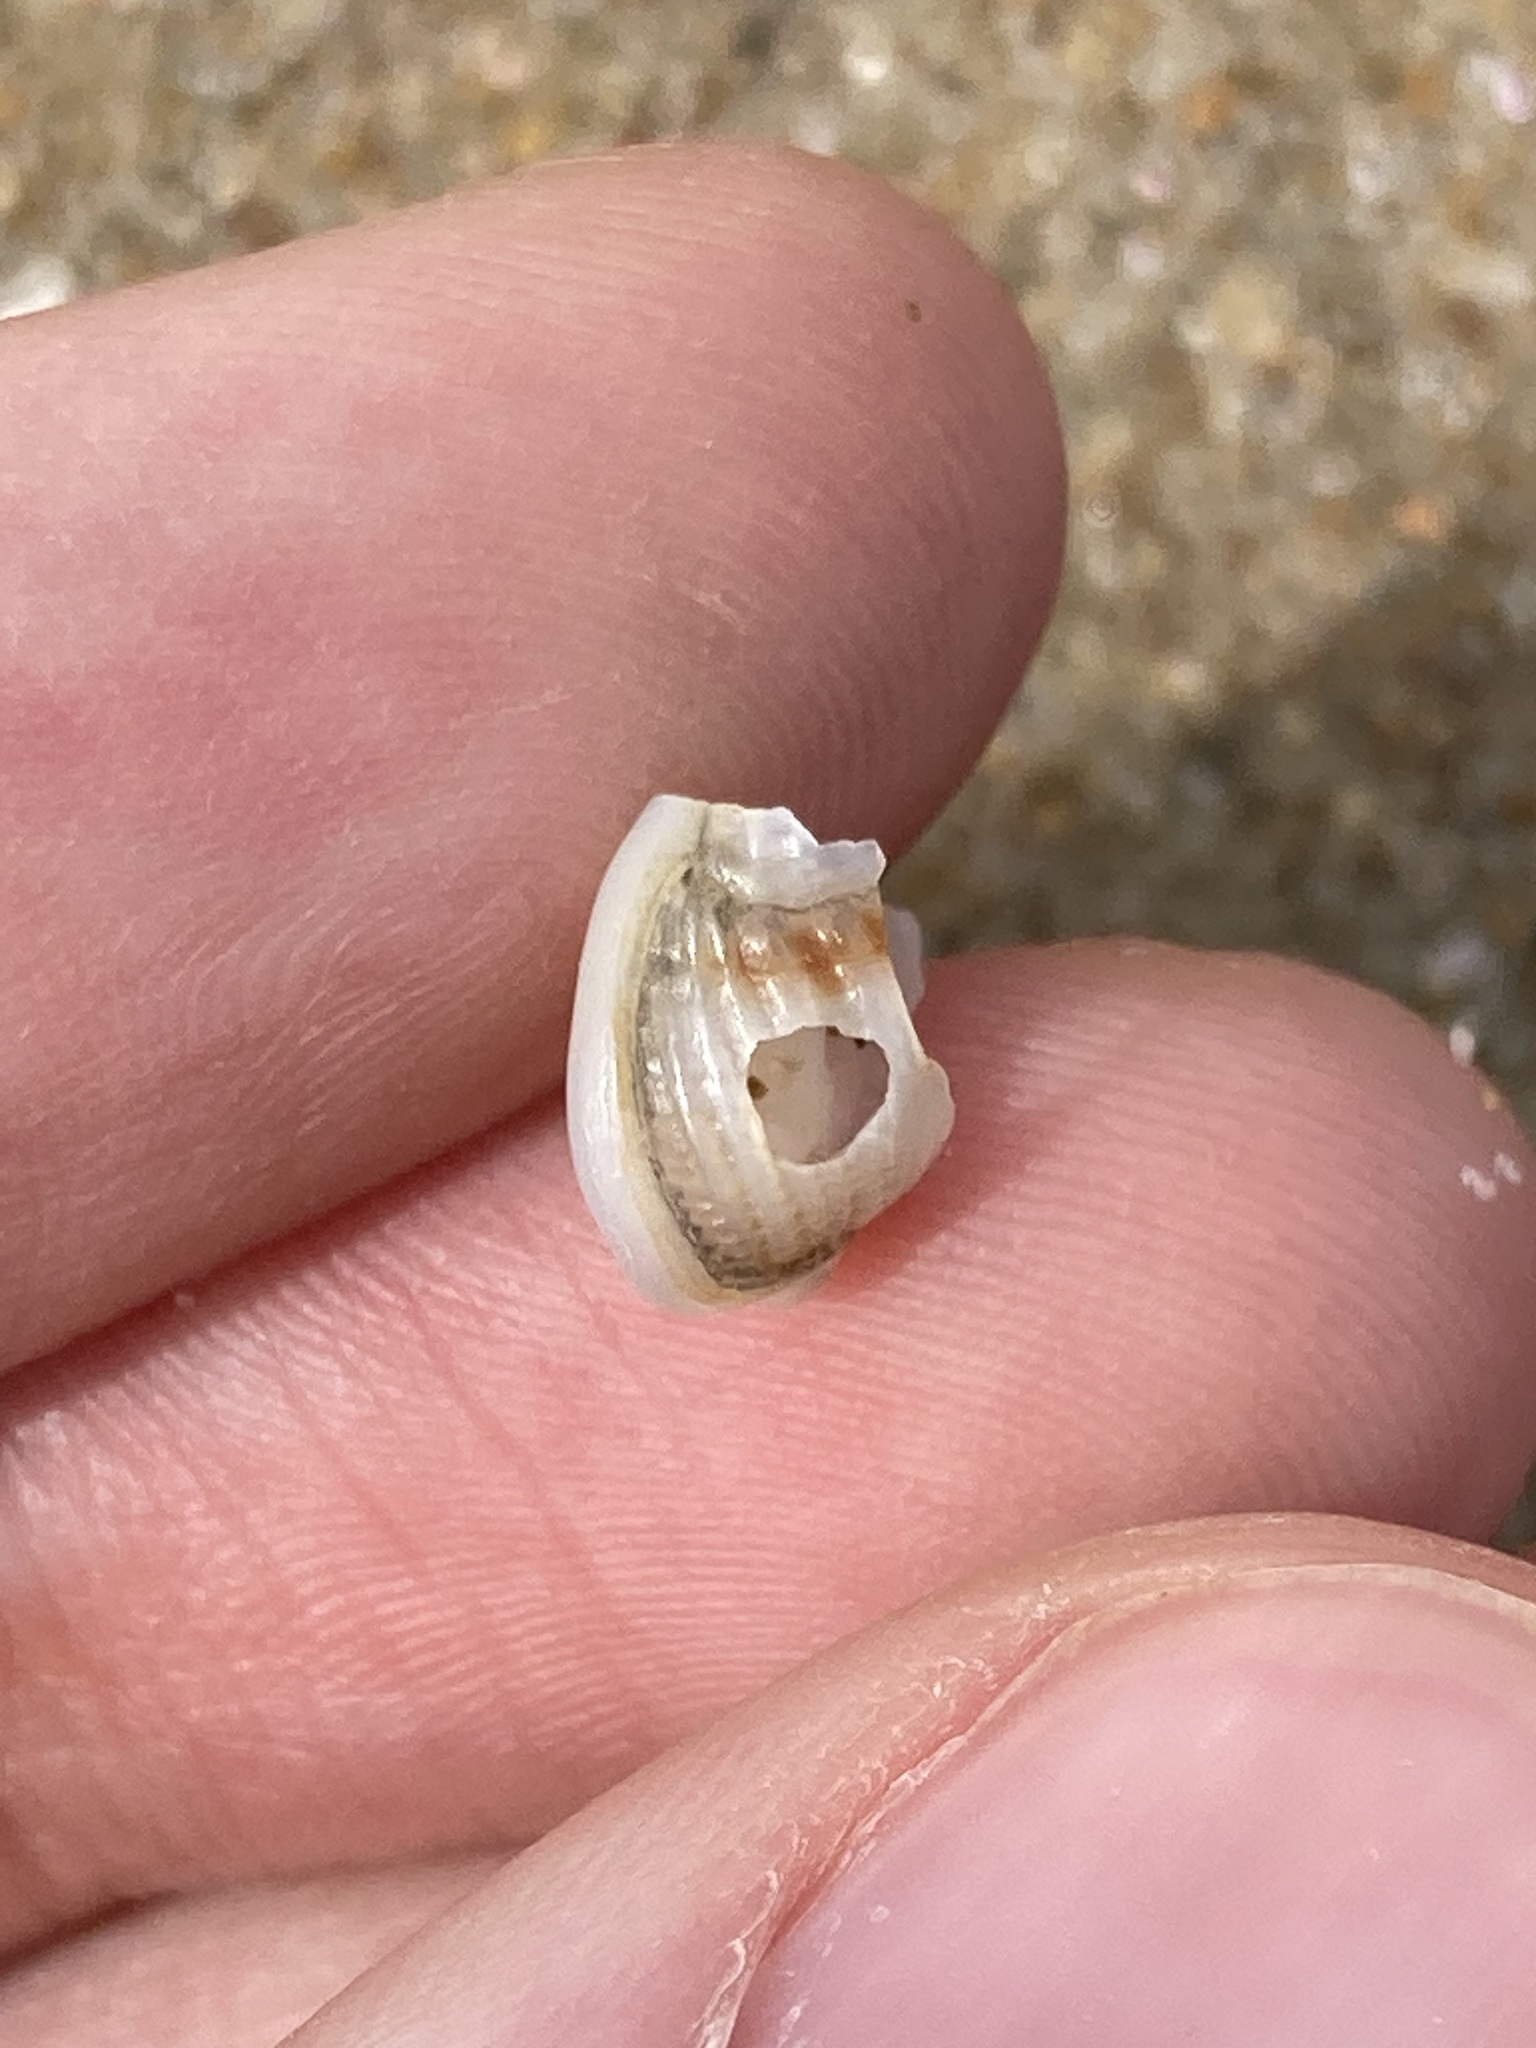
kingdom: Animalia
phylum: Mollusca
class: Gastropoda
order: Neogastropoda
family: Nassariidae
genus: Nassarius
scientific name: Nassarius jonasii
